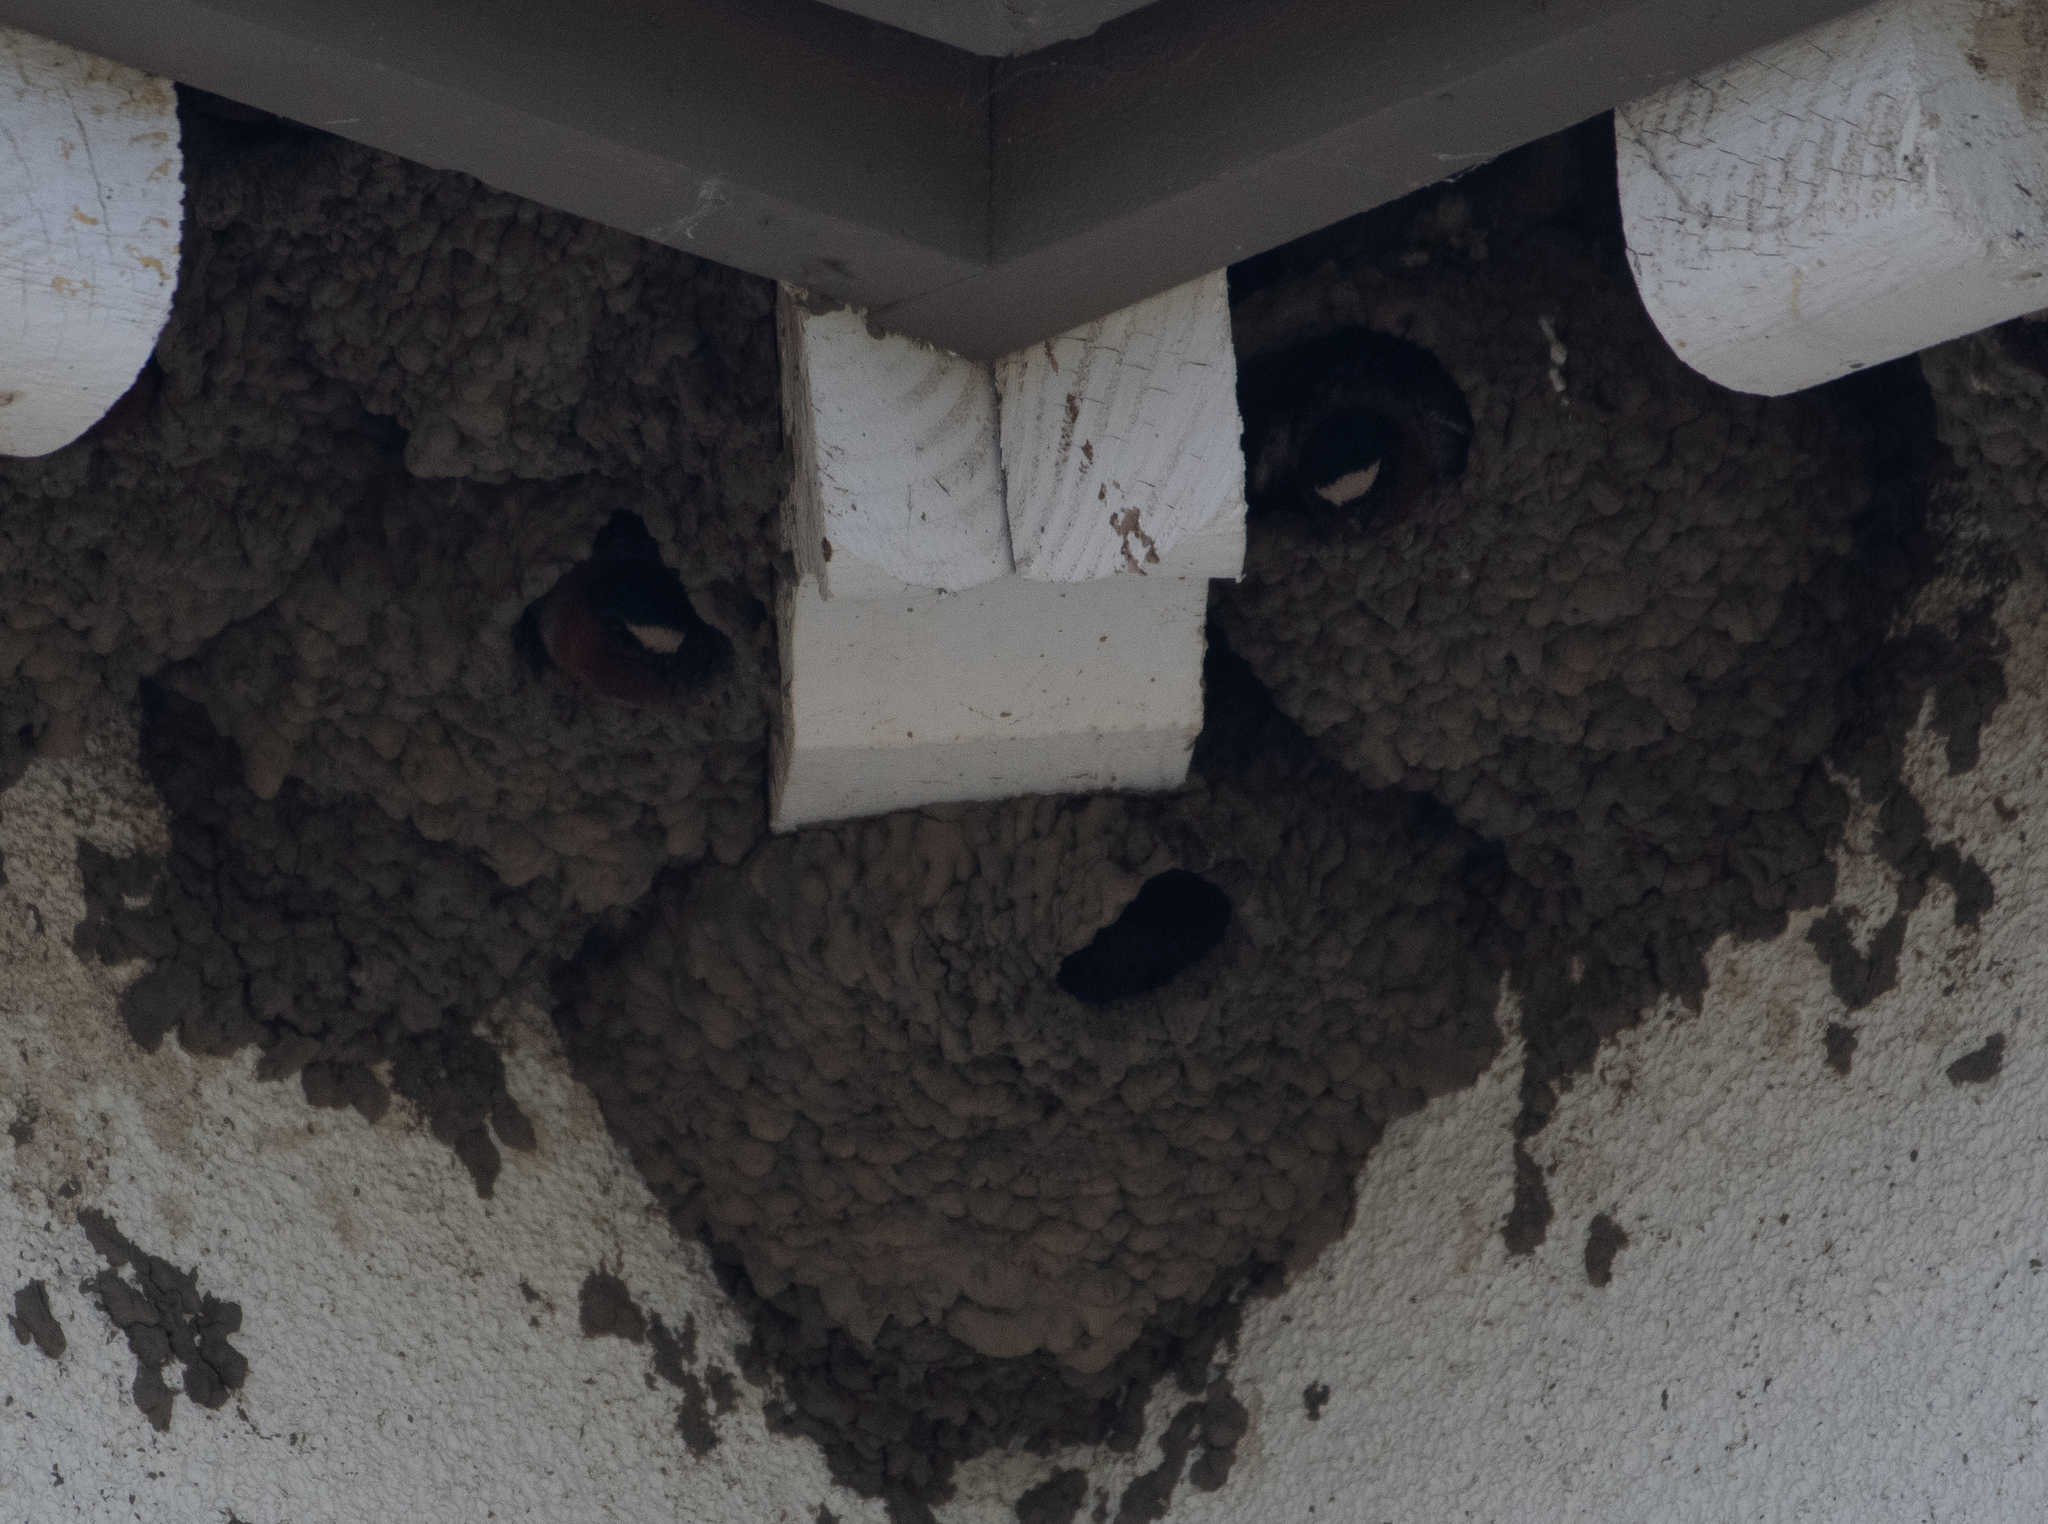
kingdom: Animalia
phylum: Chordata
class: Aves
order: Passeriformes
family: Hirundinidae
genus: Petrochelidon
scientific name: Petrochelidon pyrrhonota
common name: American cliff swallow
